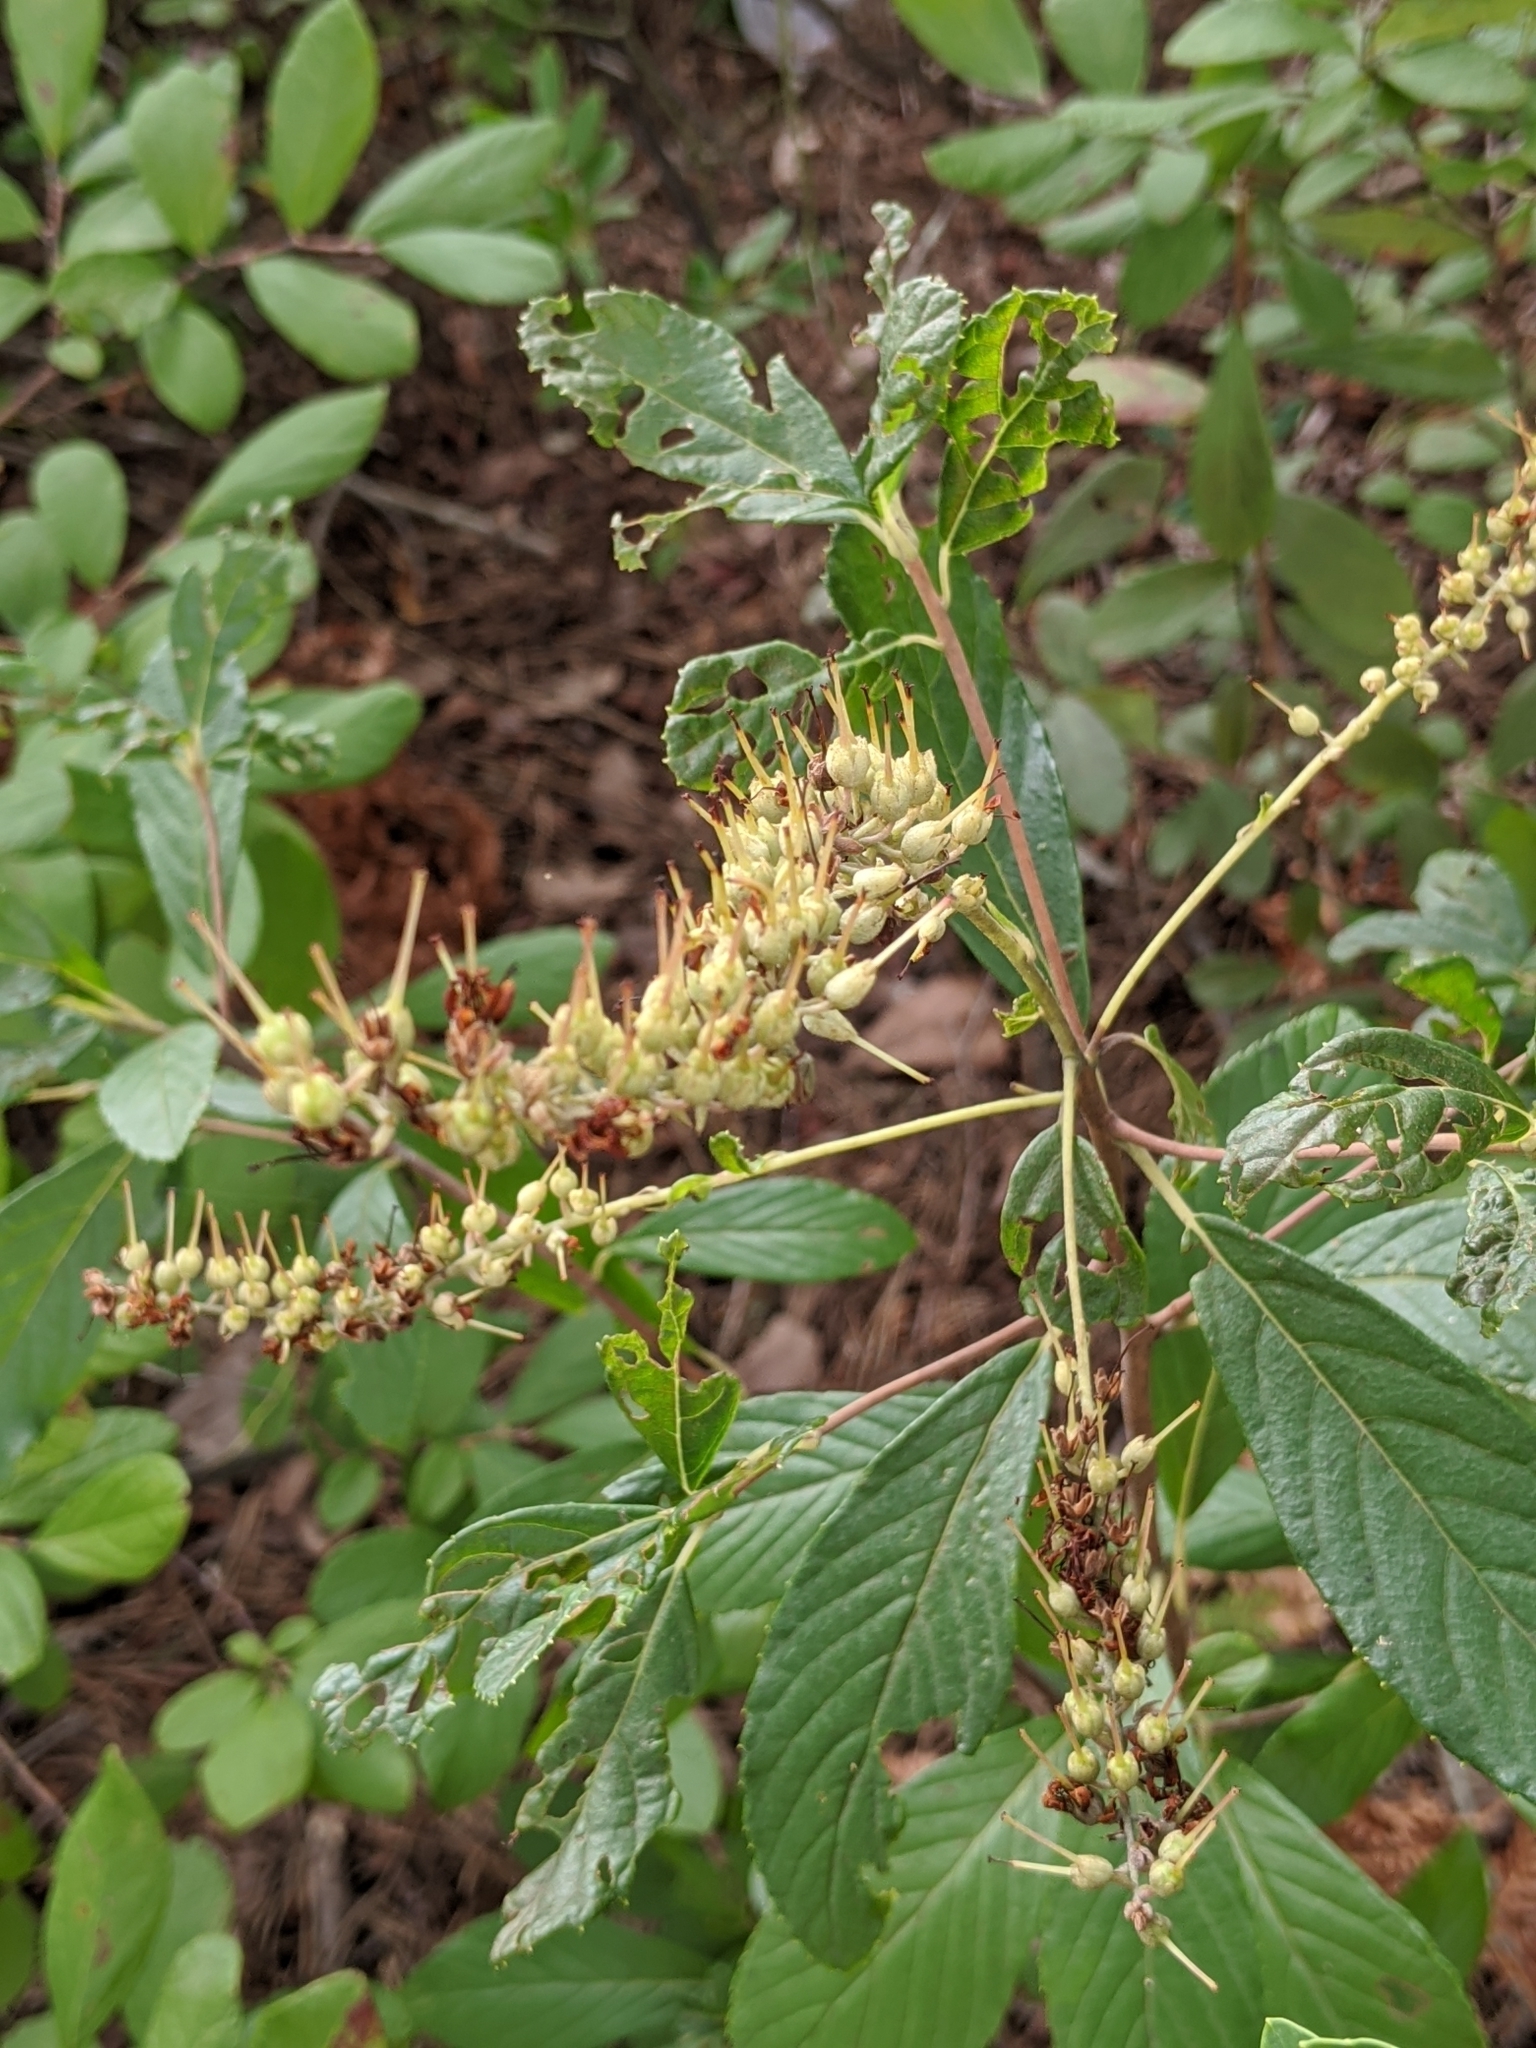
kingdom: Plantae
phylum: Tracheophyta
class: Magnoliopsida
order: Ericales
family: Clethraceae
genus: Clethra
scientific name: Clethra alnifolia
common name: Sweet pepperbush
